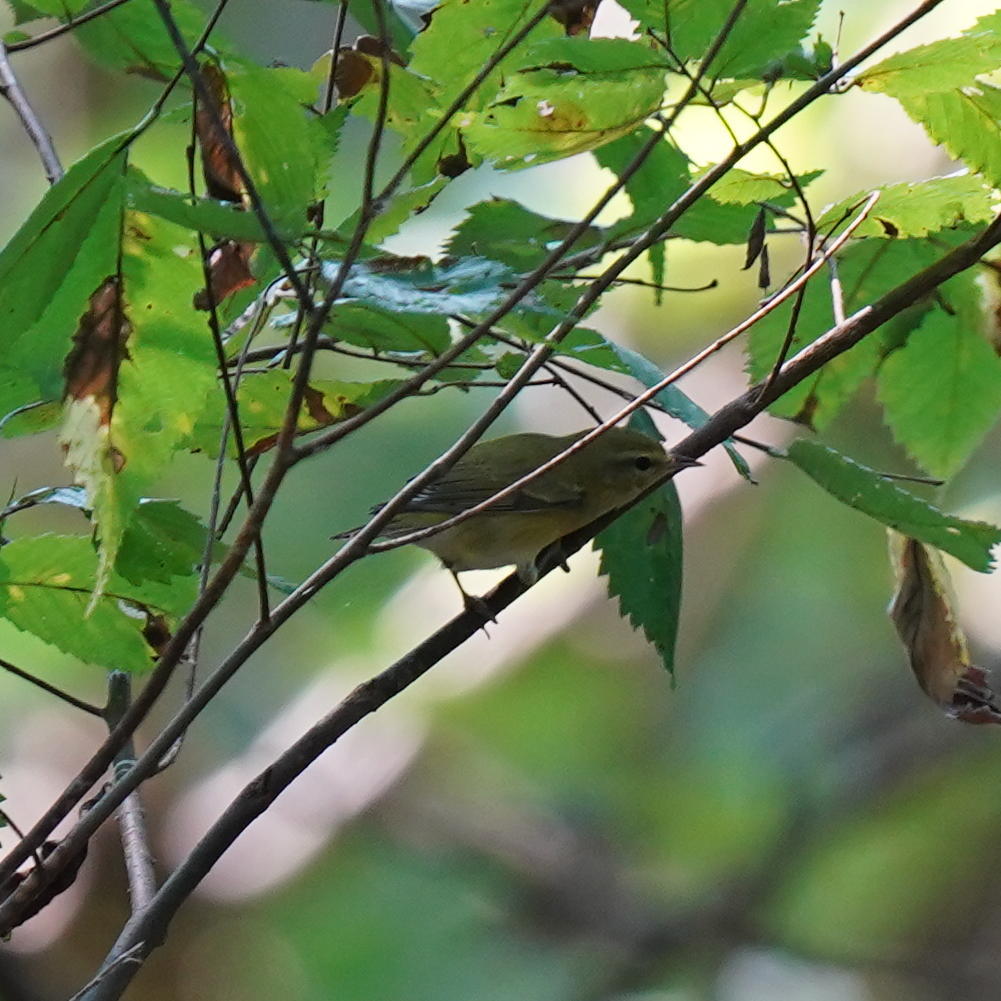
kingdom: Animalia
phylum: Chordata
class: Aves
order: Passeriformes
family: Parulidae
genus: Leiothlypis
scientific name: Leiothlypis peregrina
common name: Tennessee warbler
